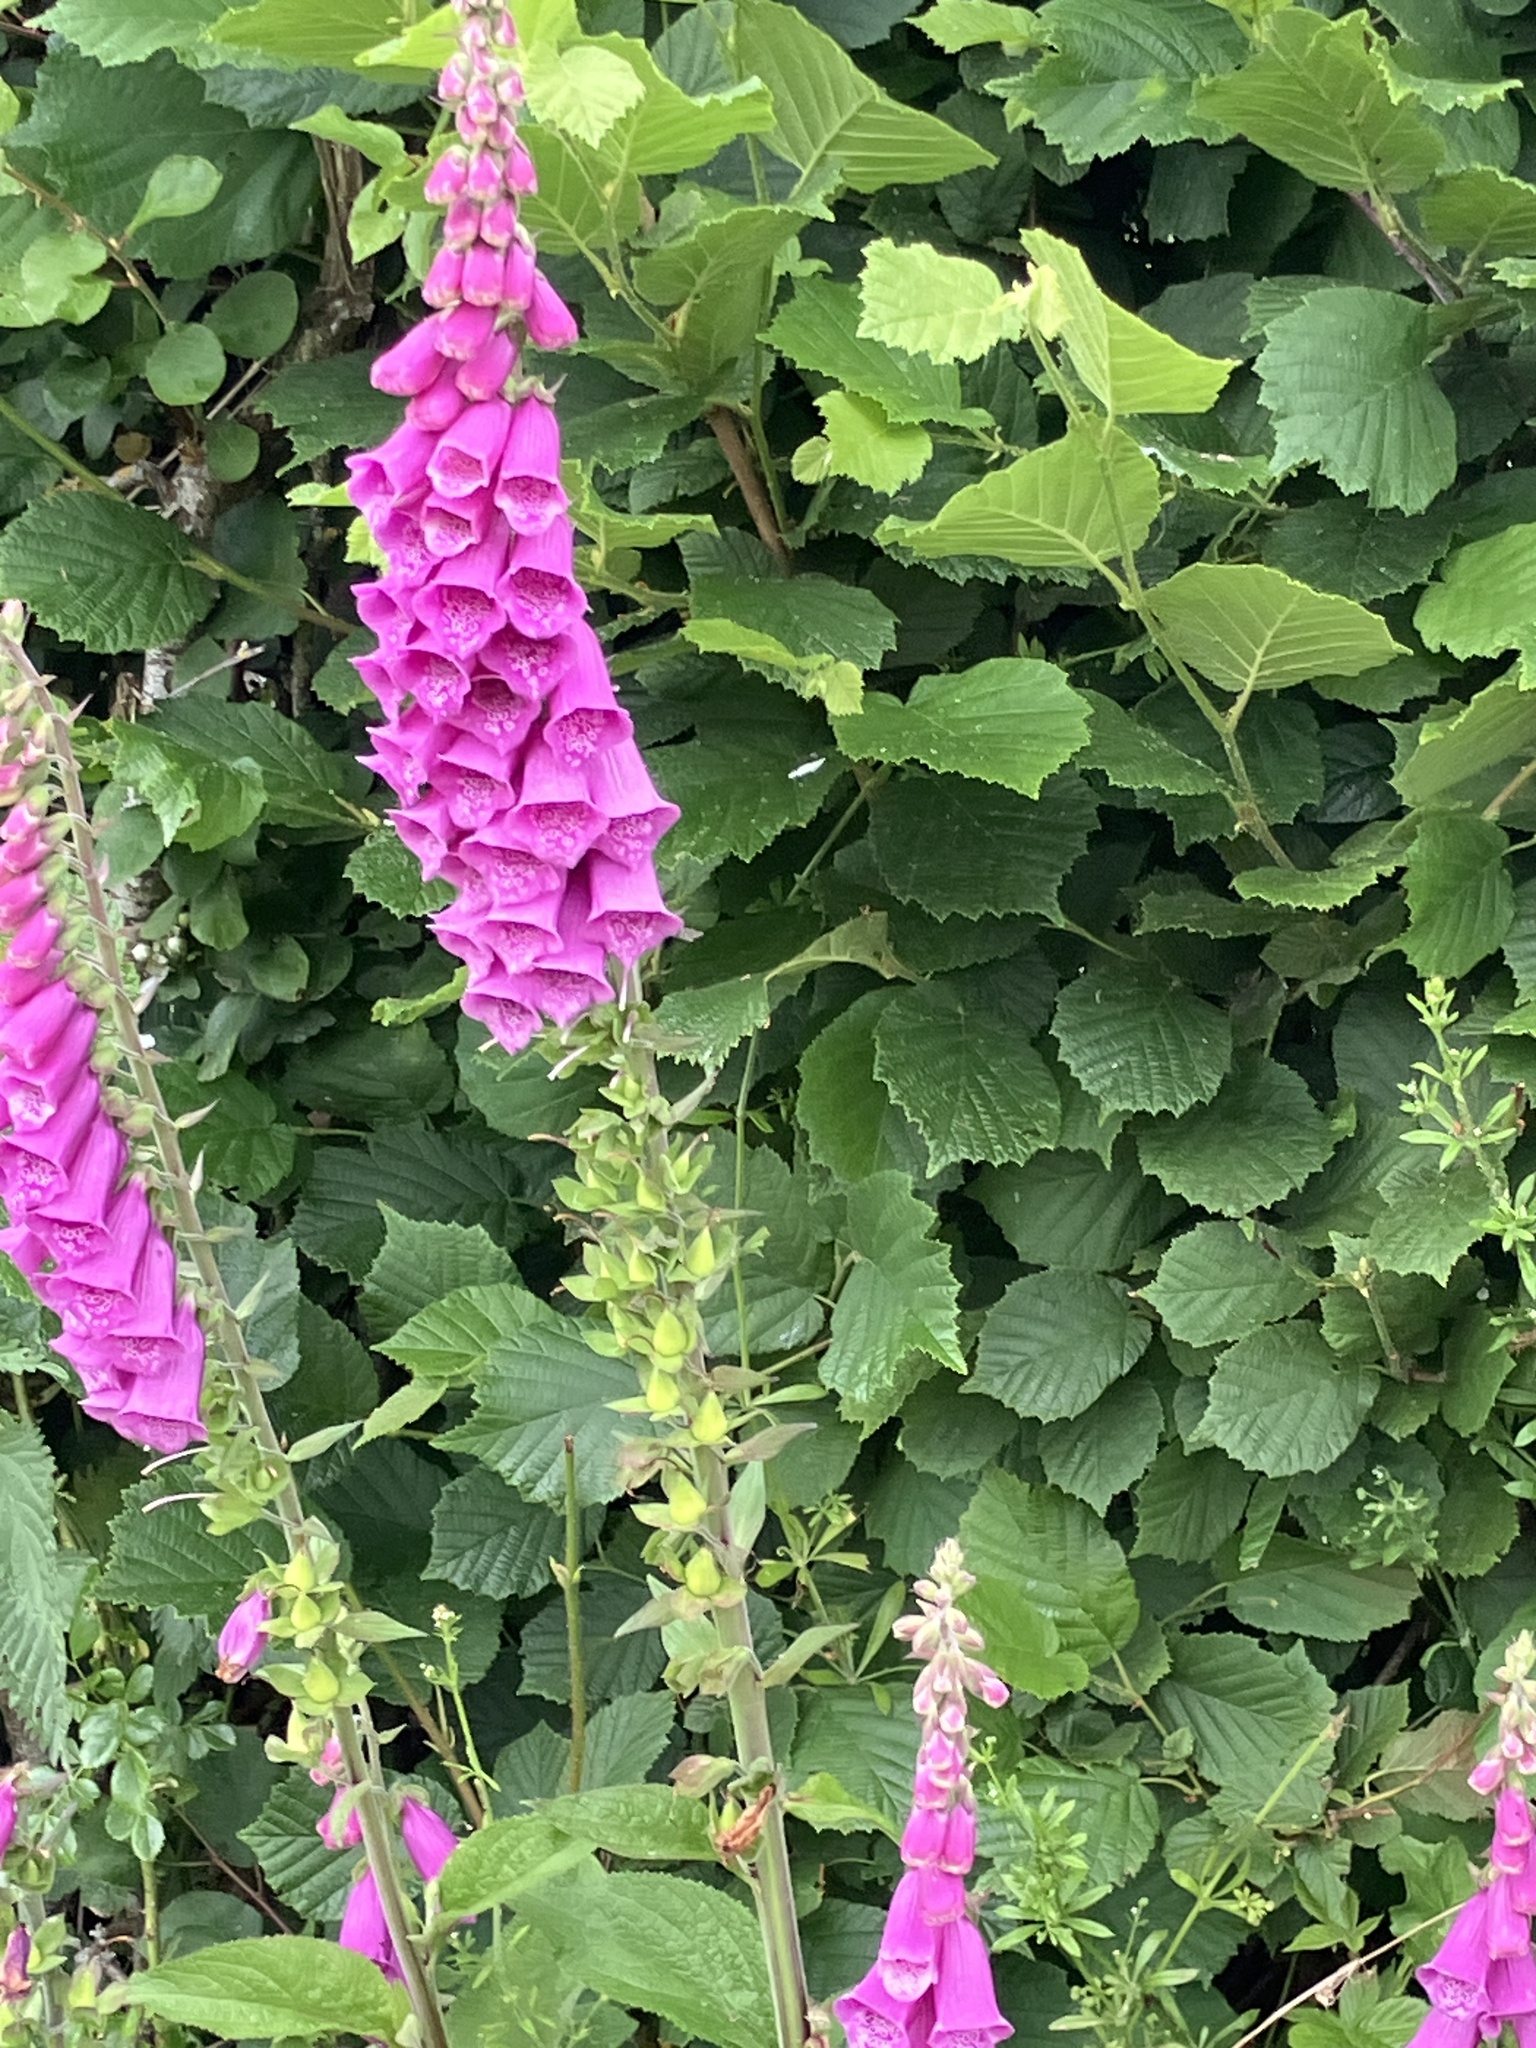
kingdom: Plantae
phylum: Tracheophyta
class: Magnoliopsida
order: Lamiales
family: Plantaginaceae
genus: Digitalis
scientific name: Digitalis purpurea
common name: Foxglove
